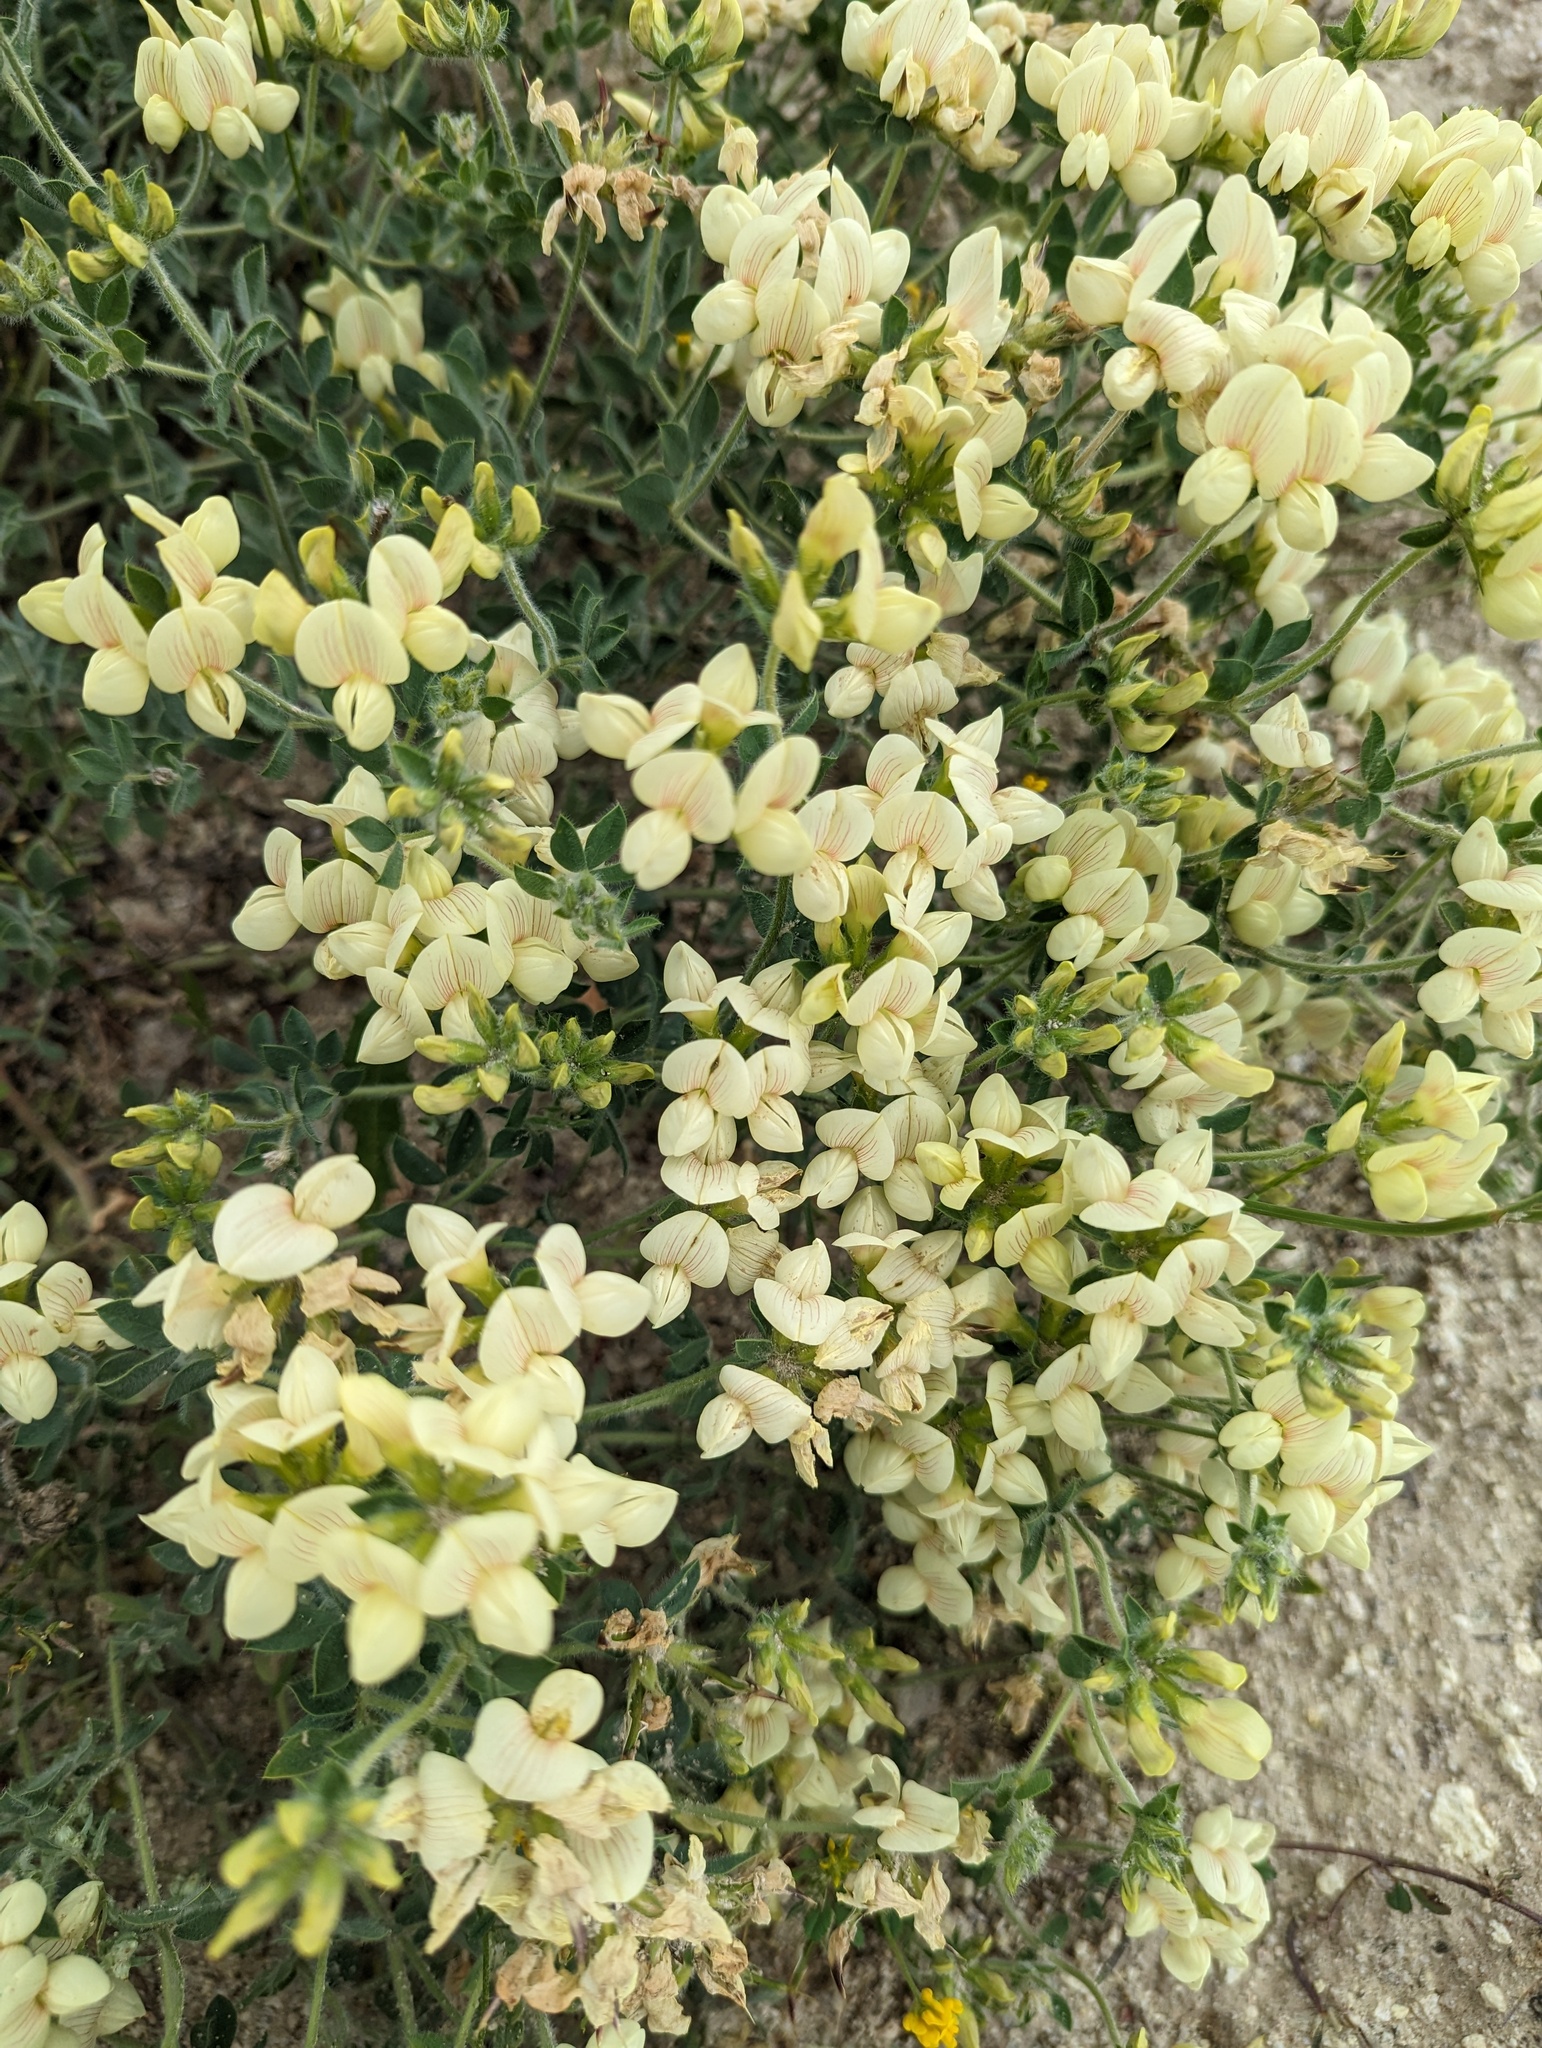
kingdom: Plantae
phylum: Tracheophyta
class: Magnoliopsida
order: Fabales
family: Fabaceae
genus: Lotus
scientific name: Lotus aegaeus
